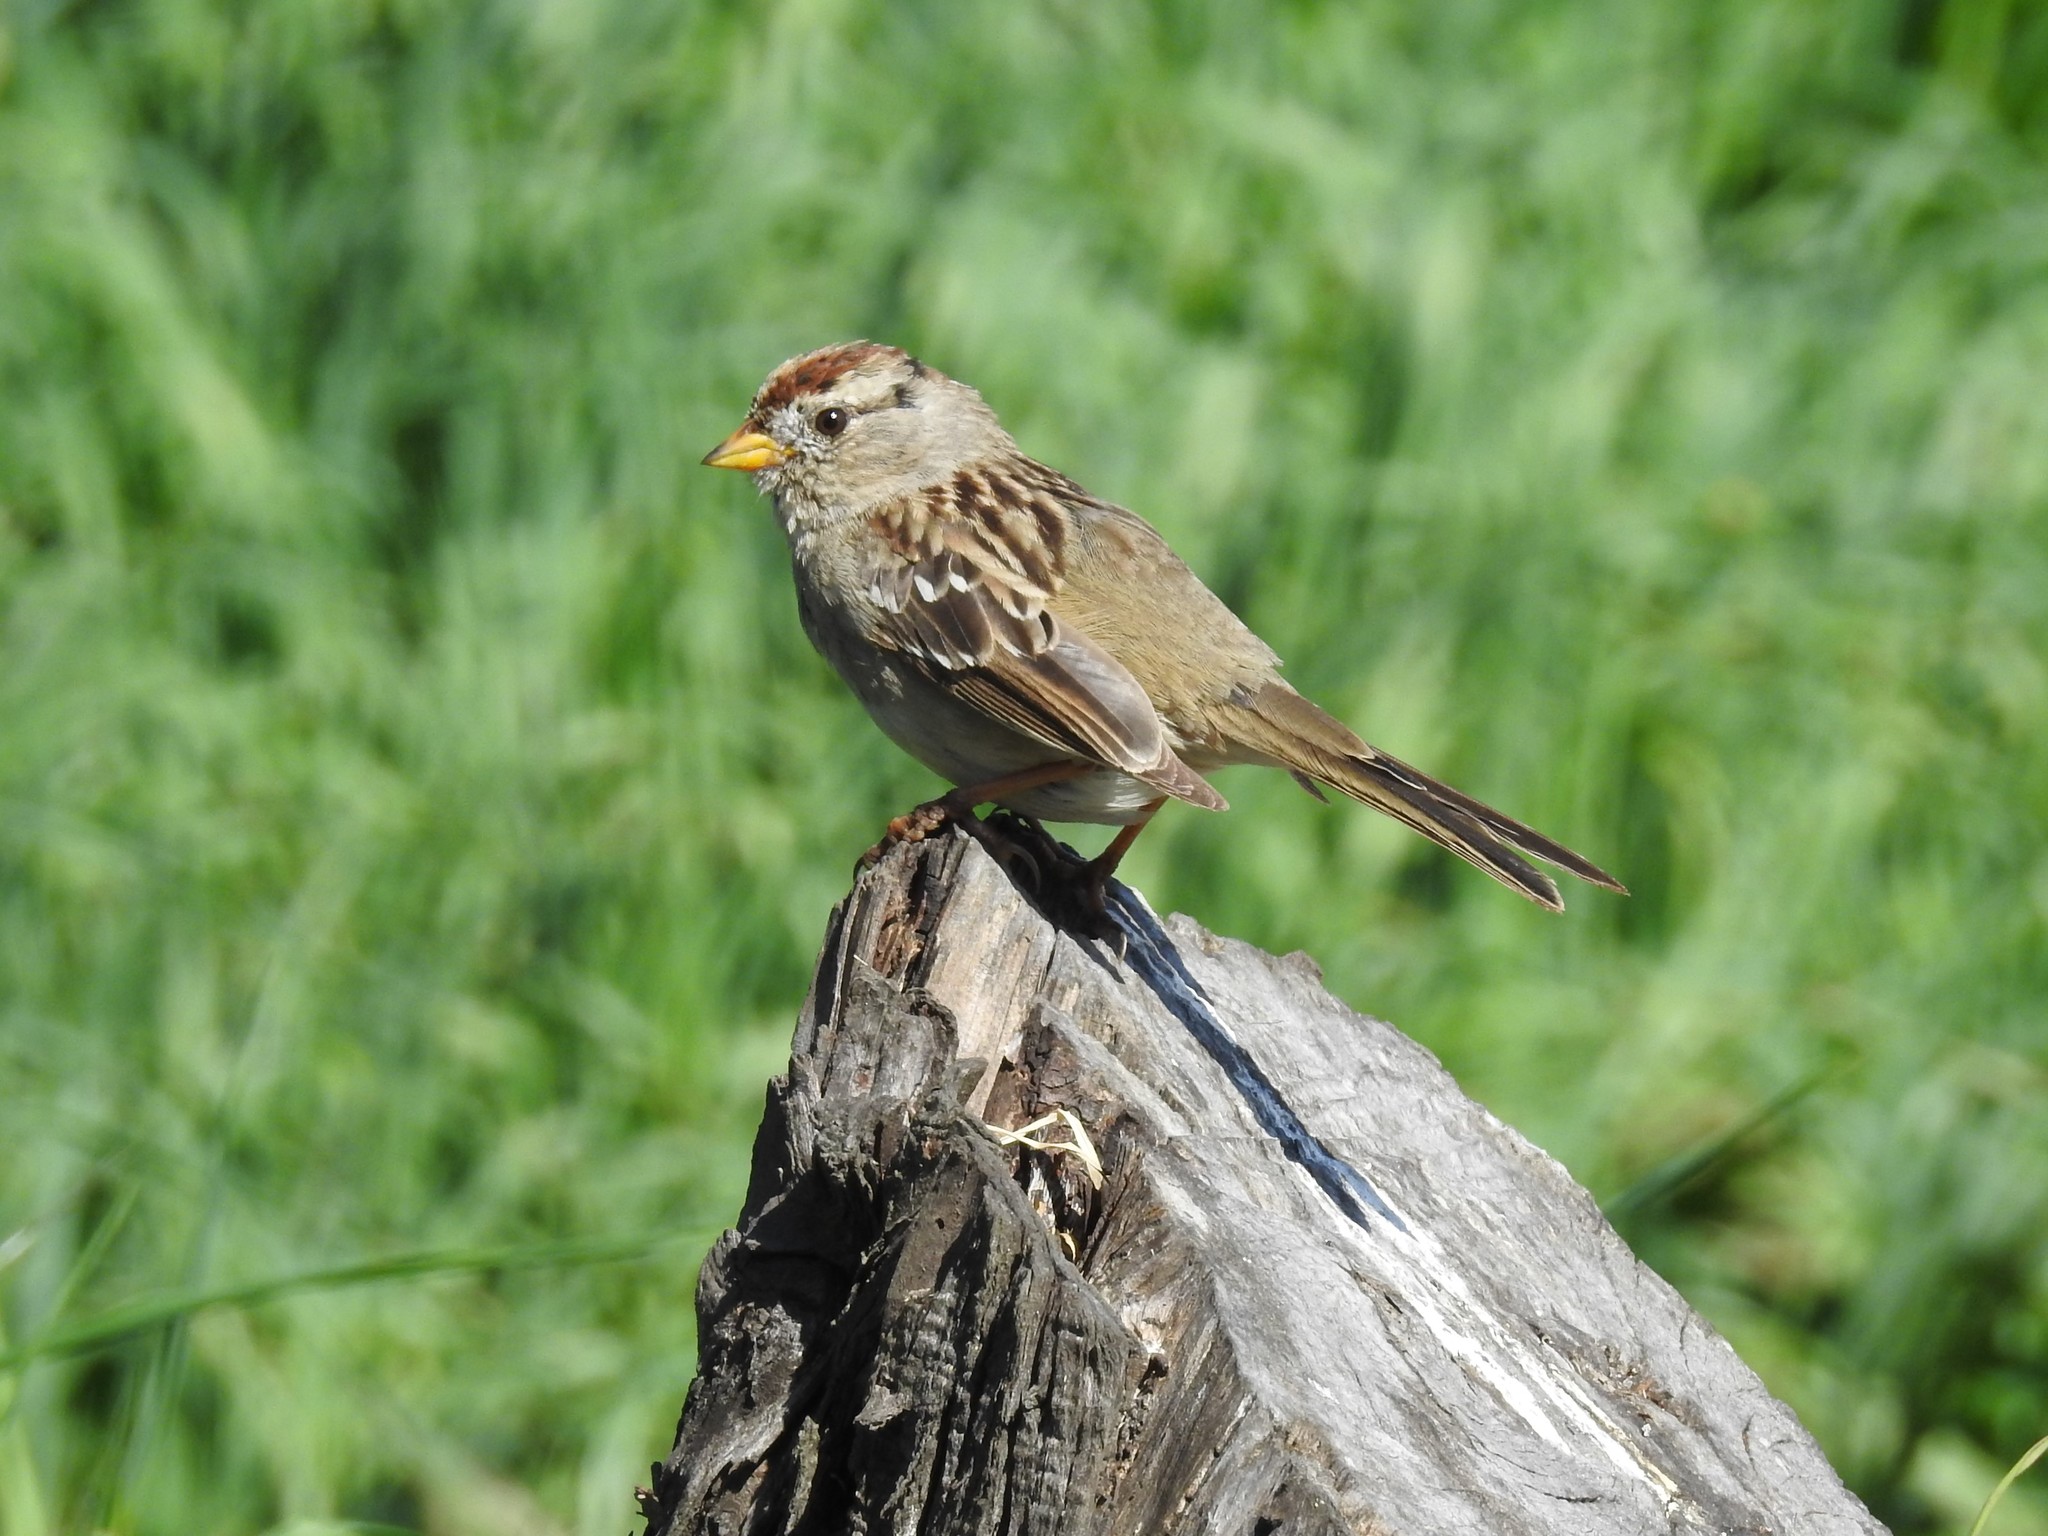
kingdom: Animalia
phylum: Chordata
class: Aves
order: Passeriformes
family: Passerellidae
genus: Zonotrichia
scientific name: Zonotrichia leucophrys
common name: White-crowned sparrow
